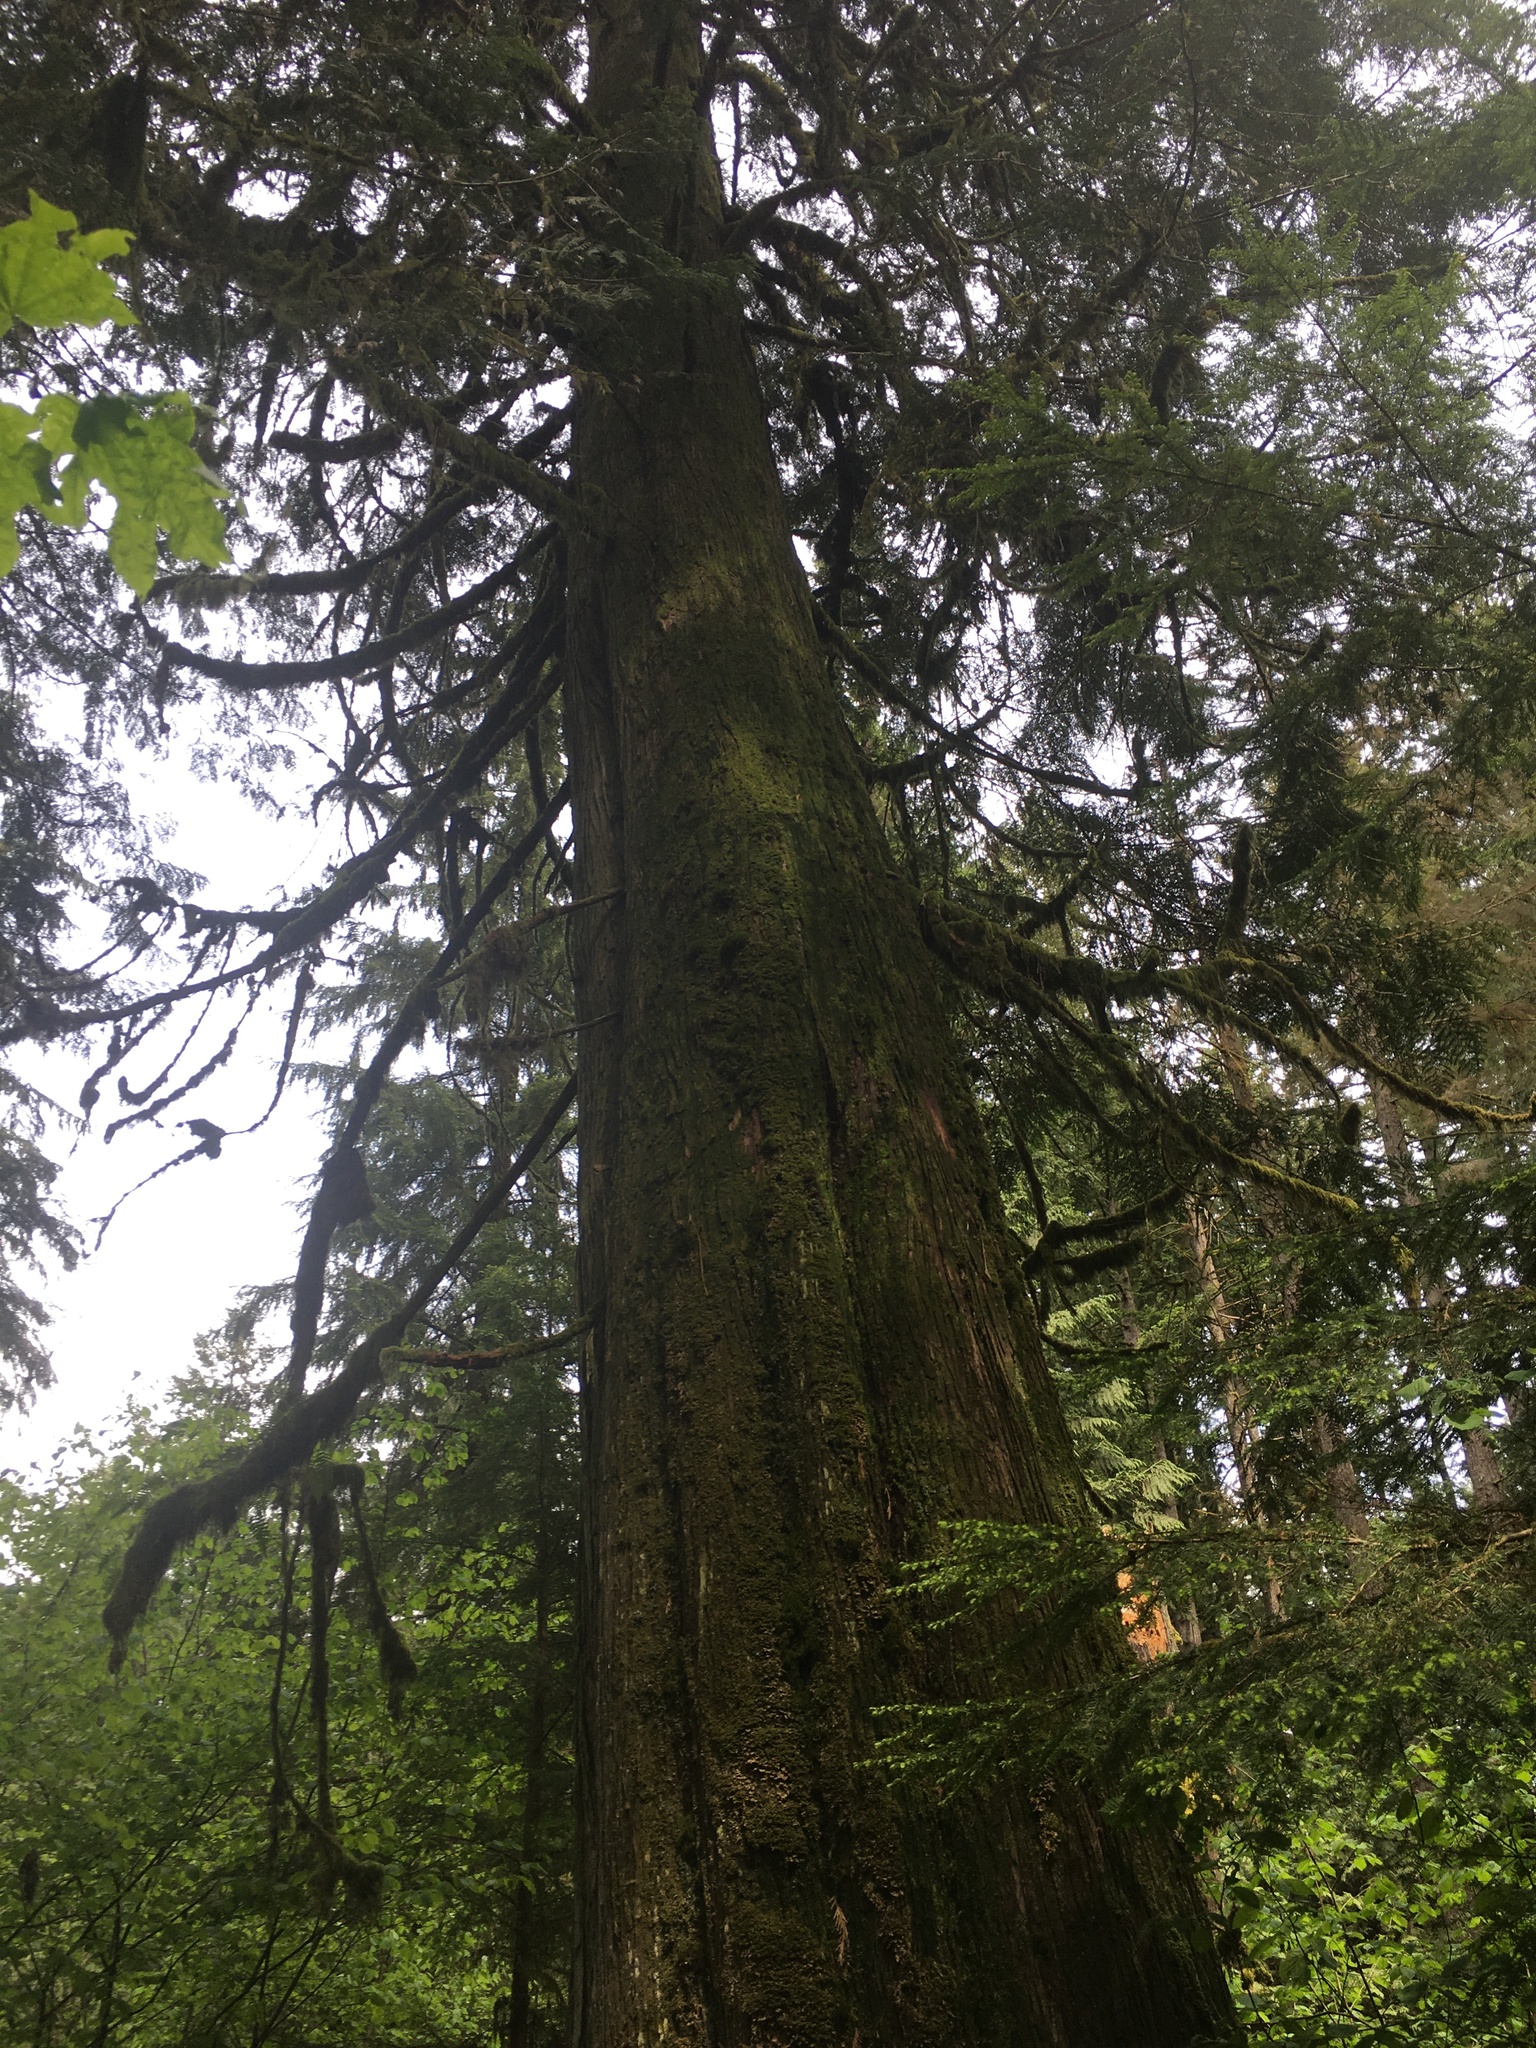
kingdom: Plantae
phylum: Tracheophyta
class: Pinopsida
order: Pinales
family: Cupressaceae
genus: Thuja
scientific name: Thuja plicata
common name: Western red-cedar
